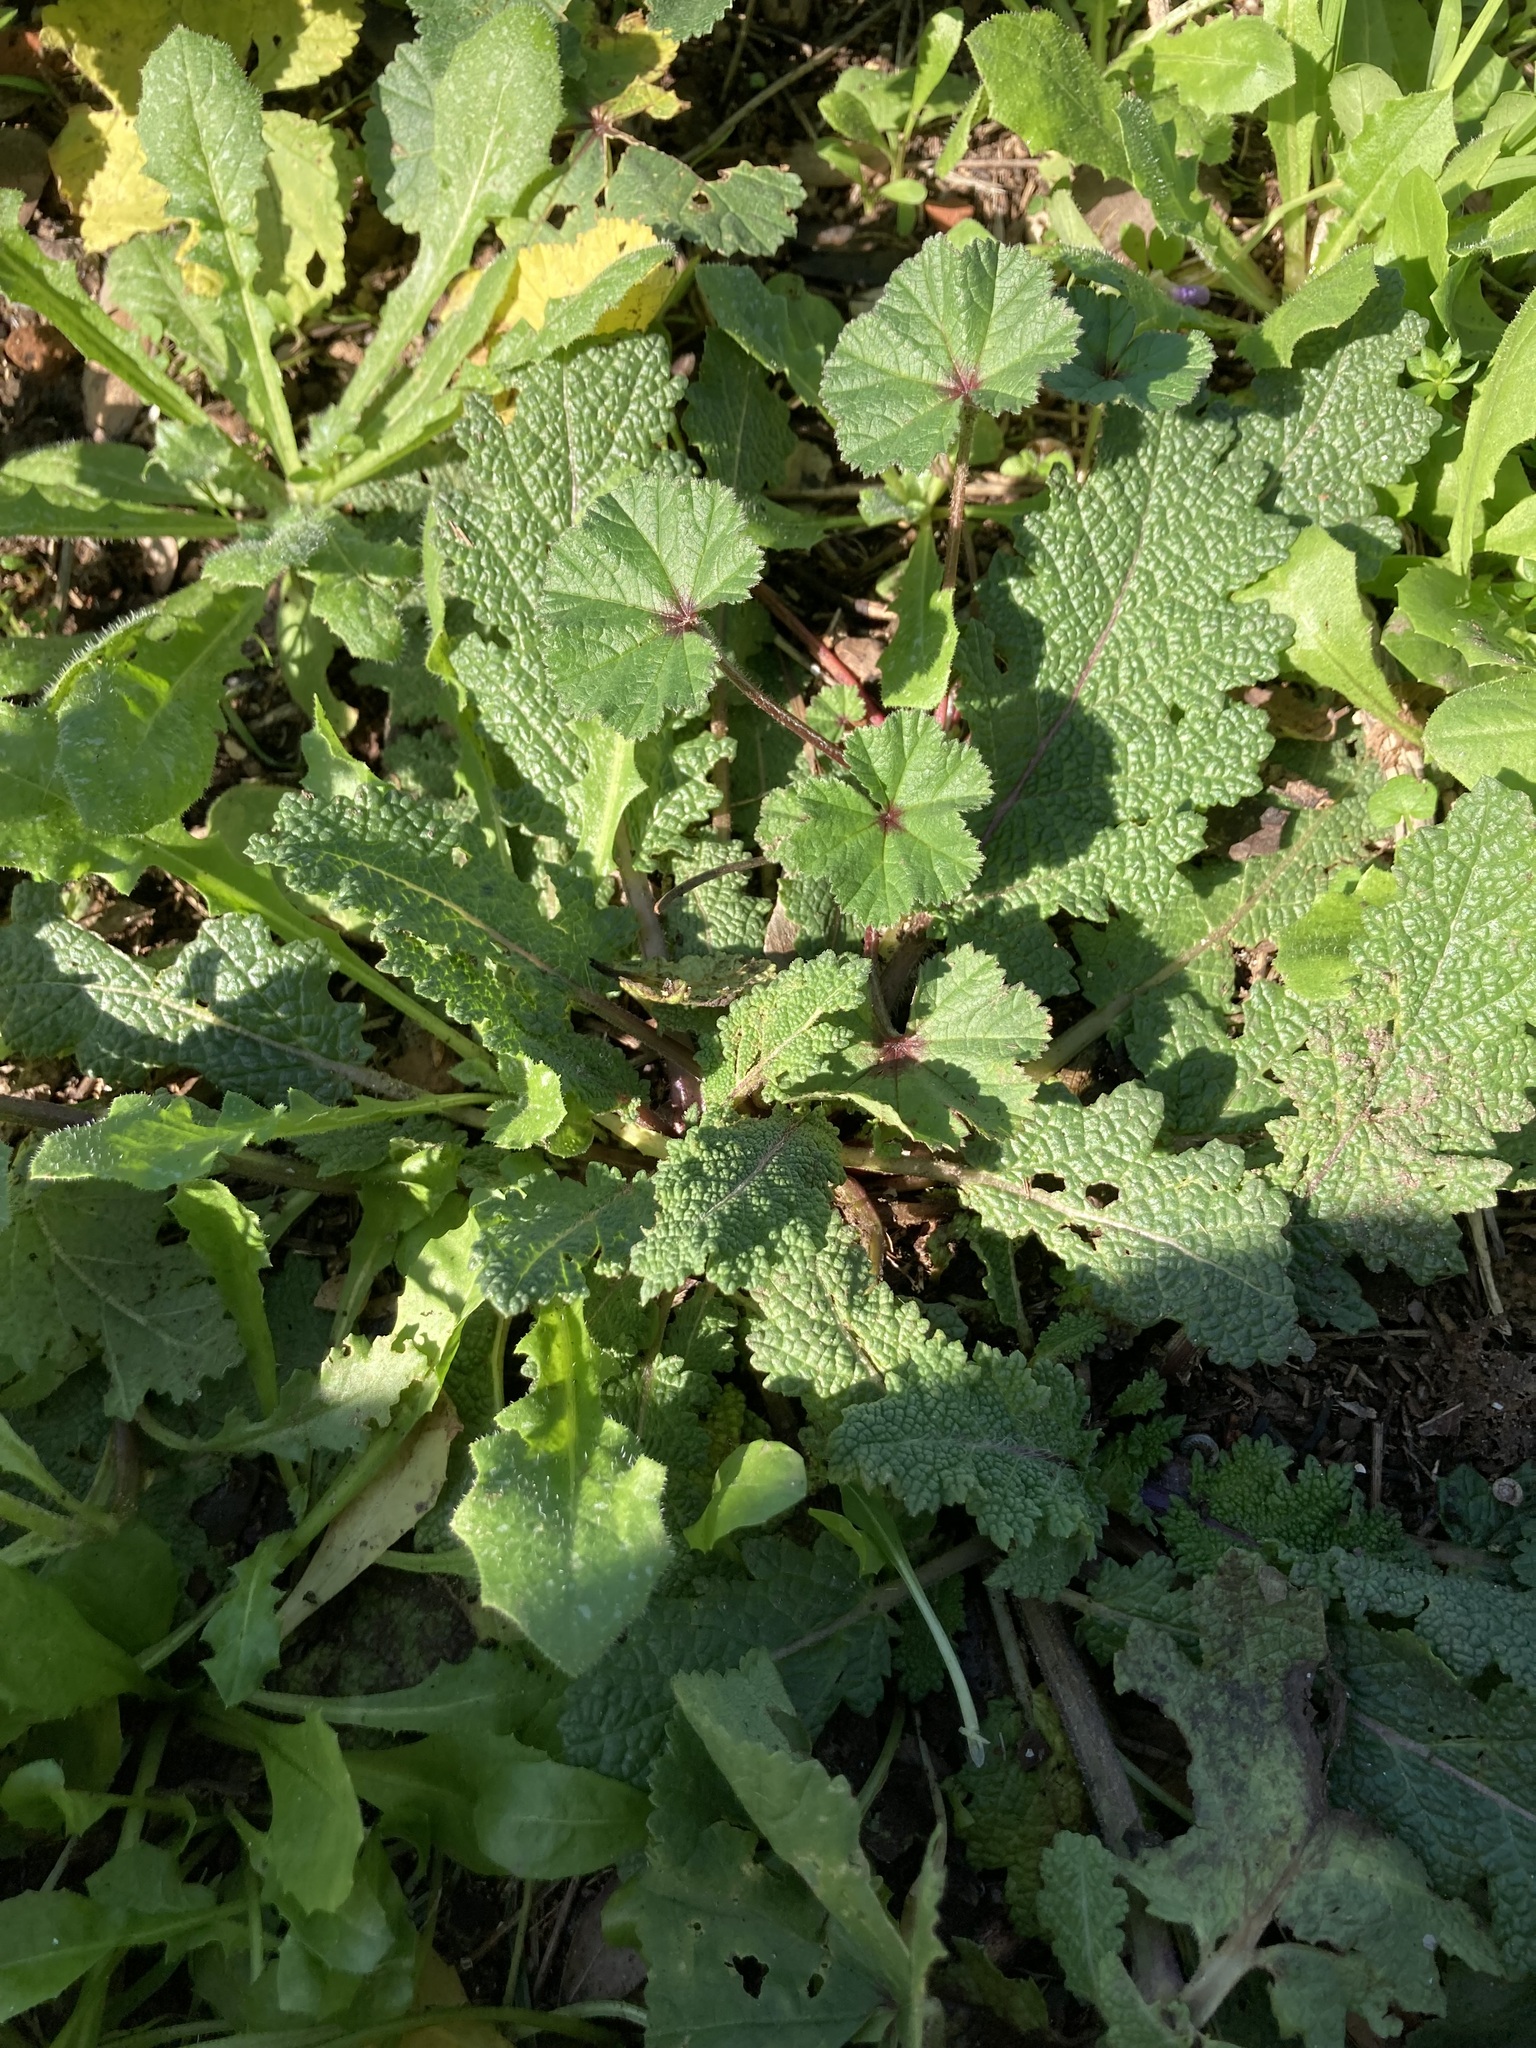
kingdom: Plantae
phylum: Tracheophyta
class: Magnoliopsida
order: Lamiales
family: Lamiaceae
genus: Salvia
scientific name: Salvia verbenaca
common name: Wild clary
